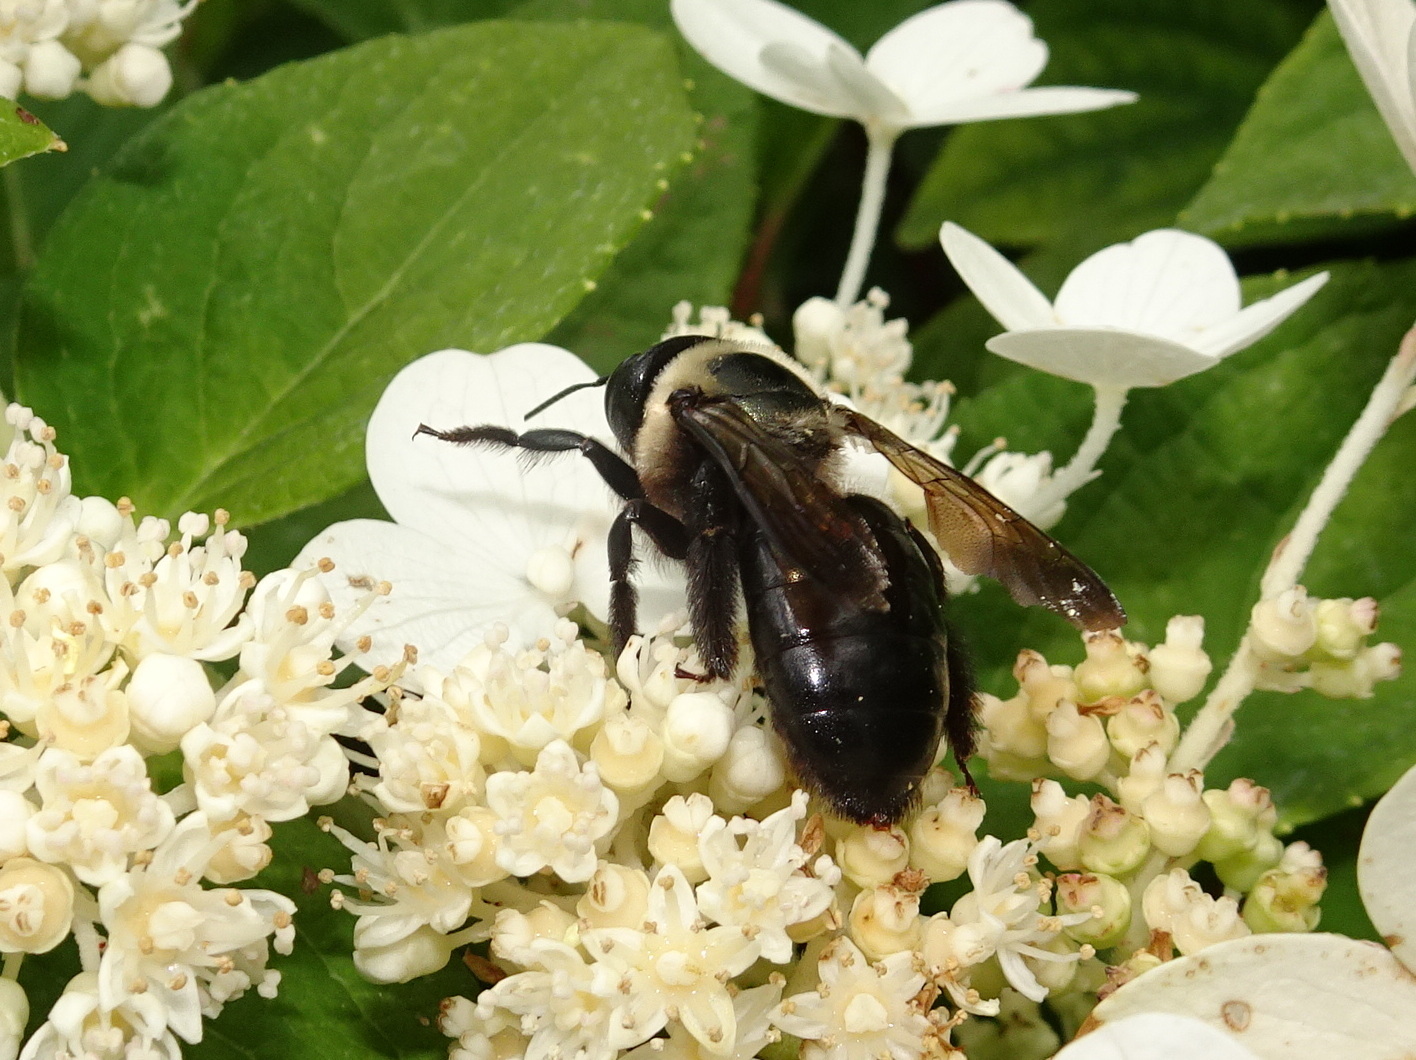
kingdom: Animalia
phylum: Arthropoda
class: Insecta
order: Hymenoptera
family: Apidae
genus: Xylocopa
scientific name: Xylocopa virginica
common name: Carpenter bee
